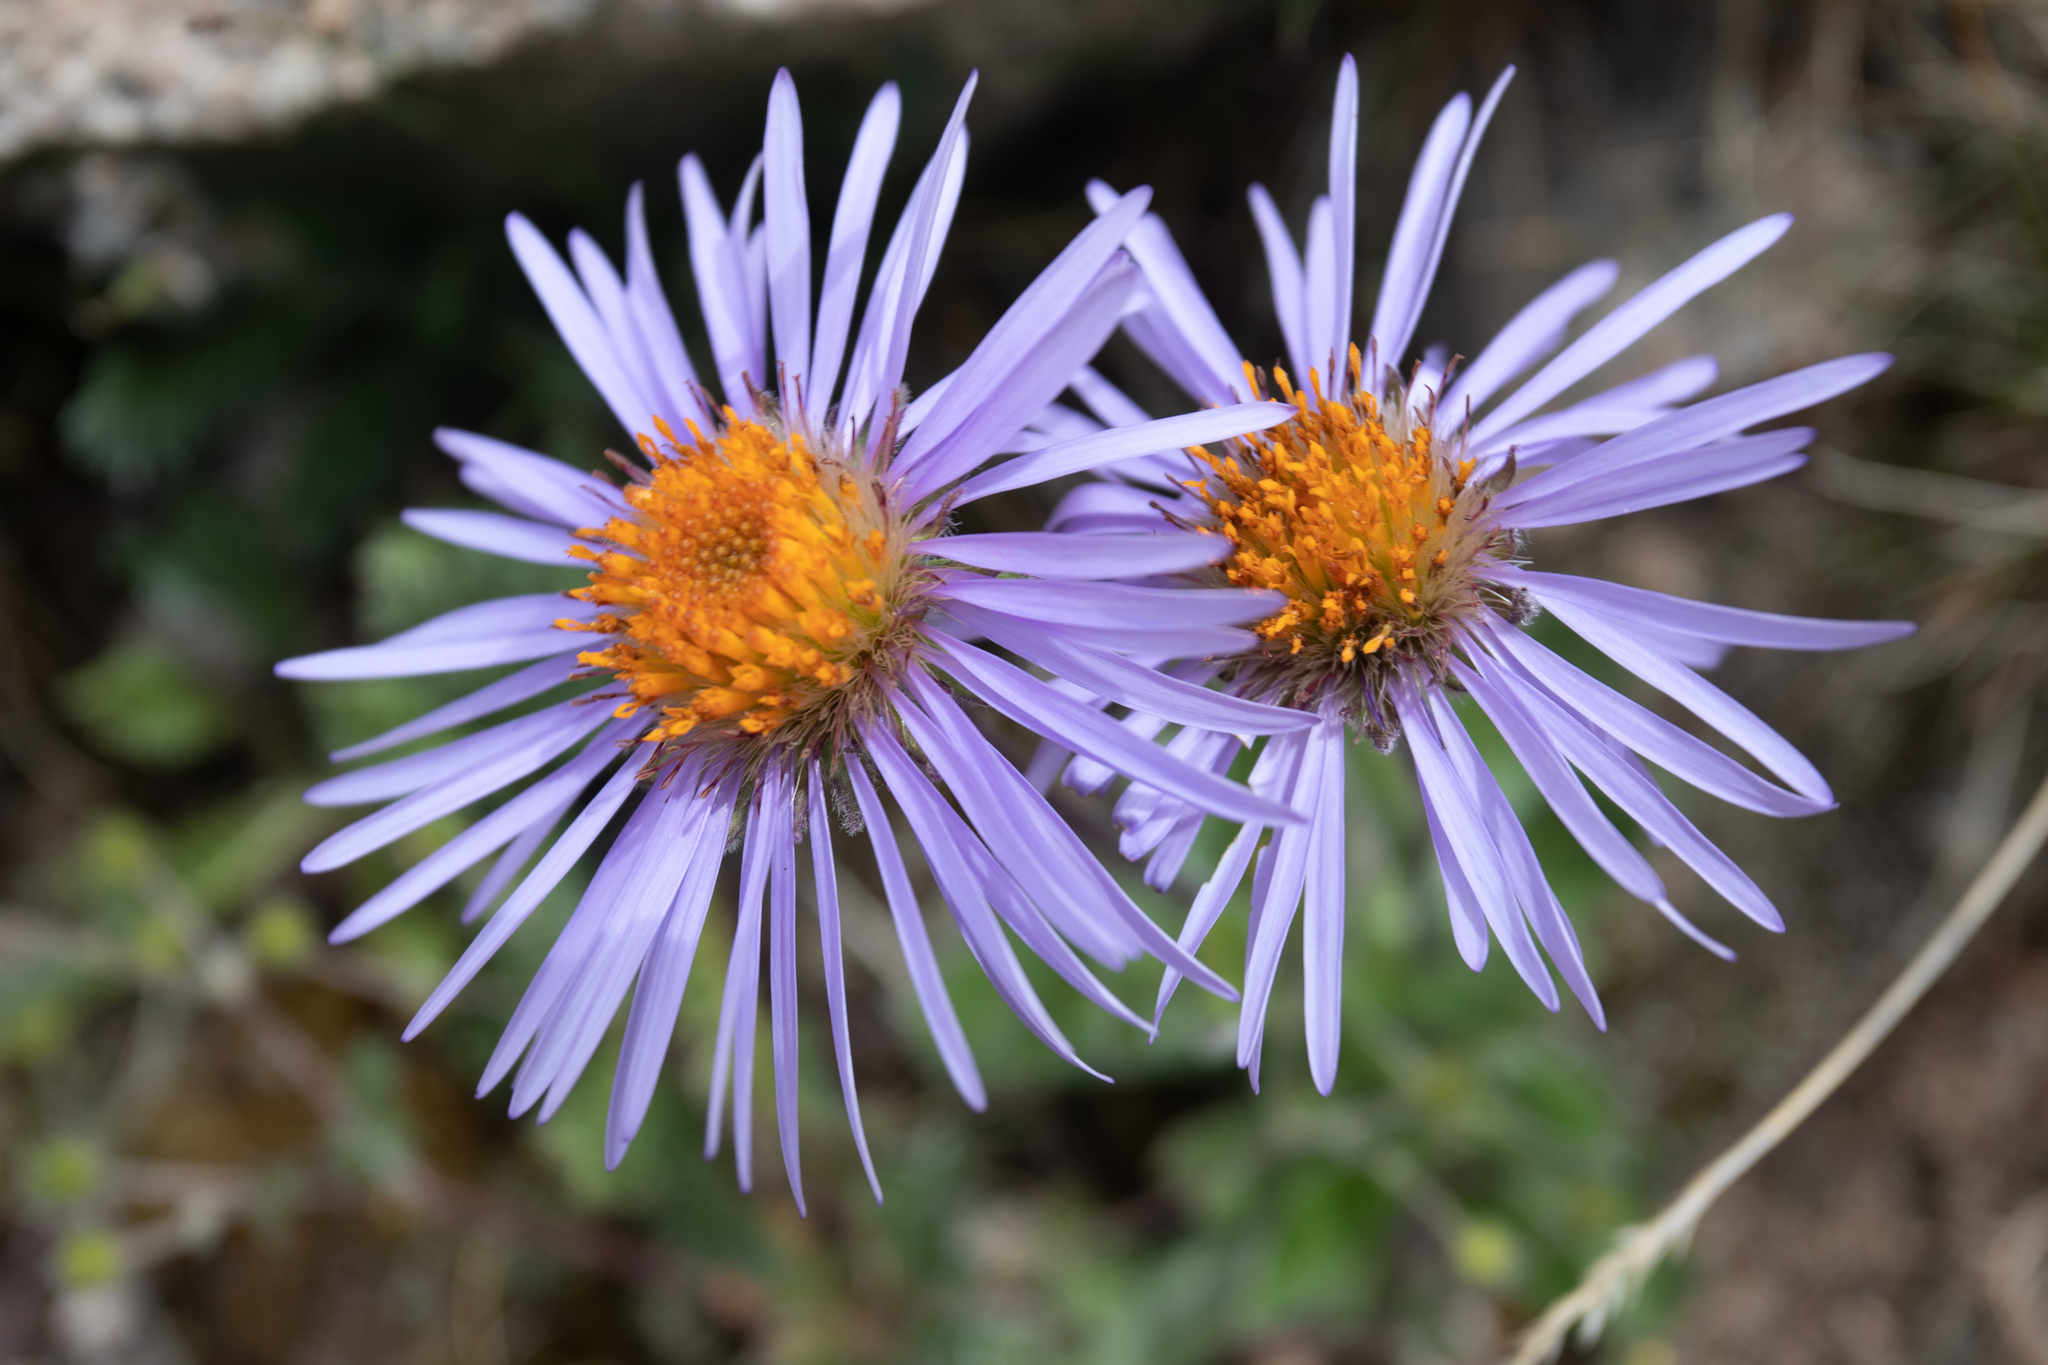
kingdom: Plantae
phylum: Tracheophyta
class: Magnoliopsida
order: Asterales
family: Asteraceae
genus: Tibetiodes
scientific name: Tibetiodes flaccida
